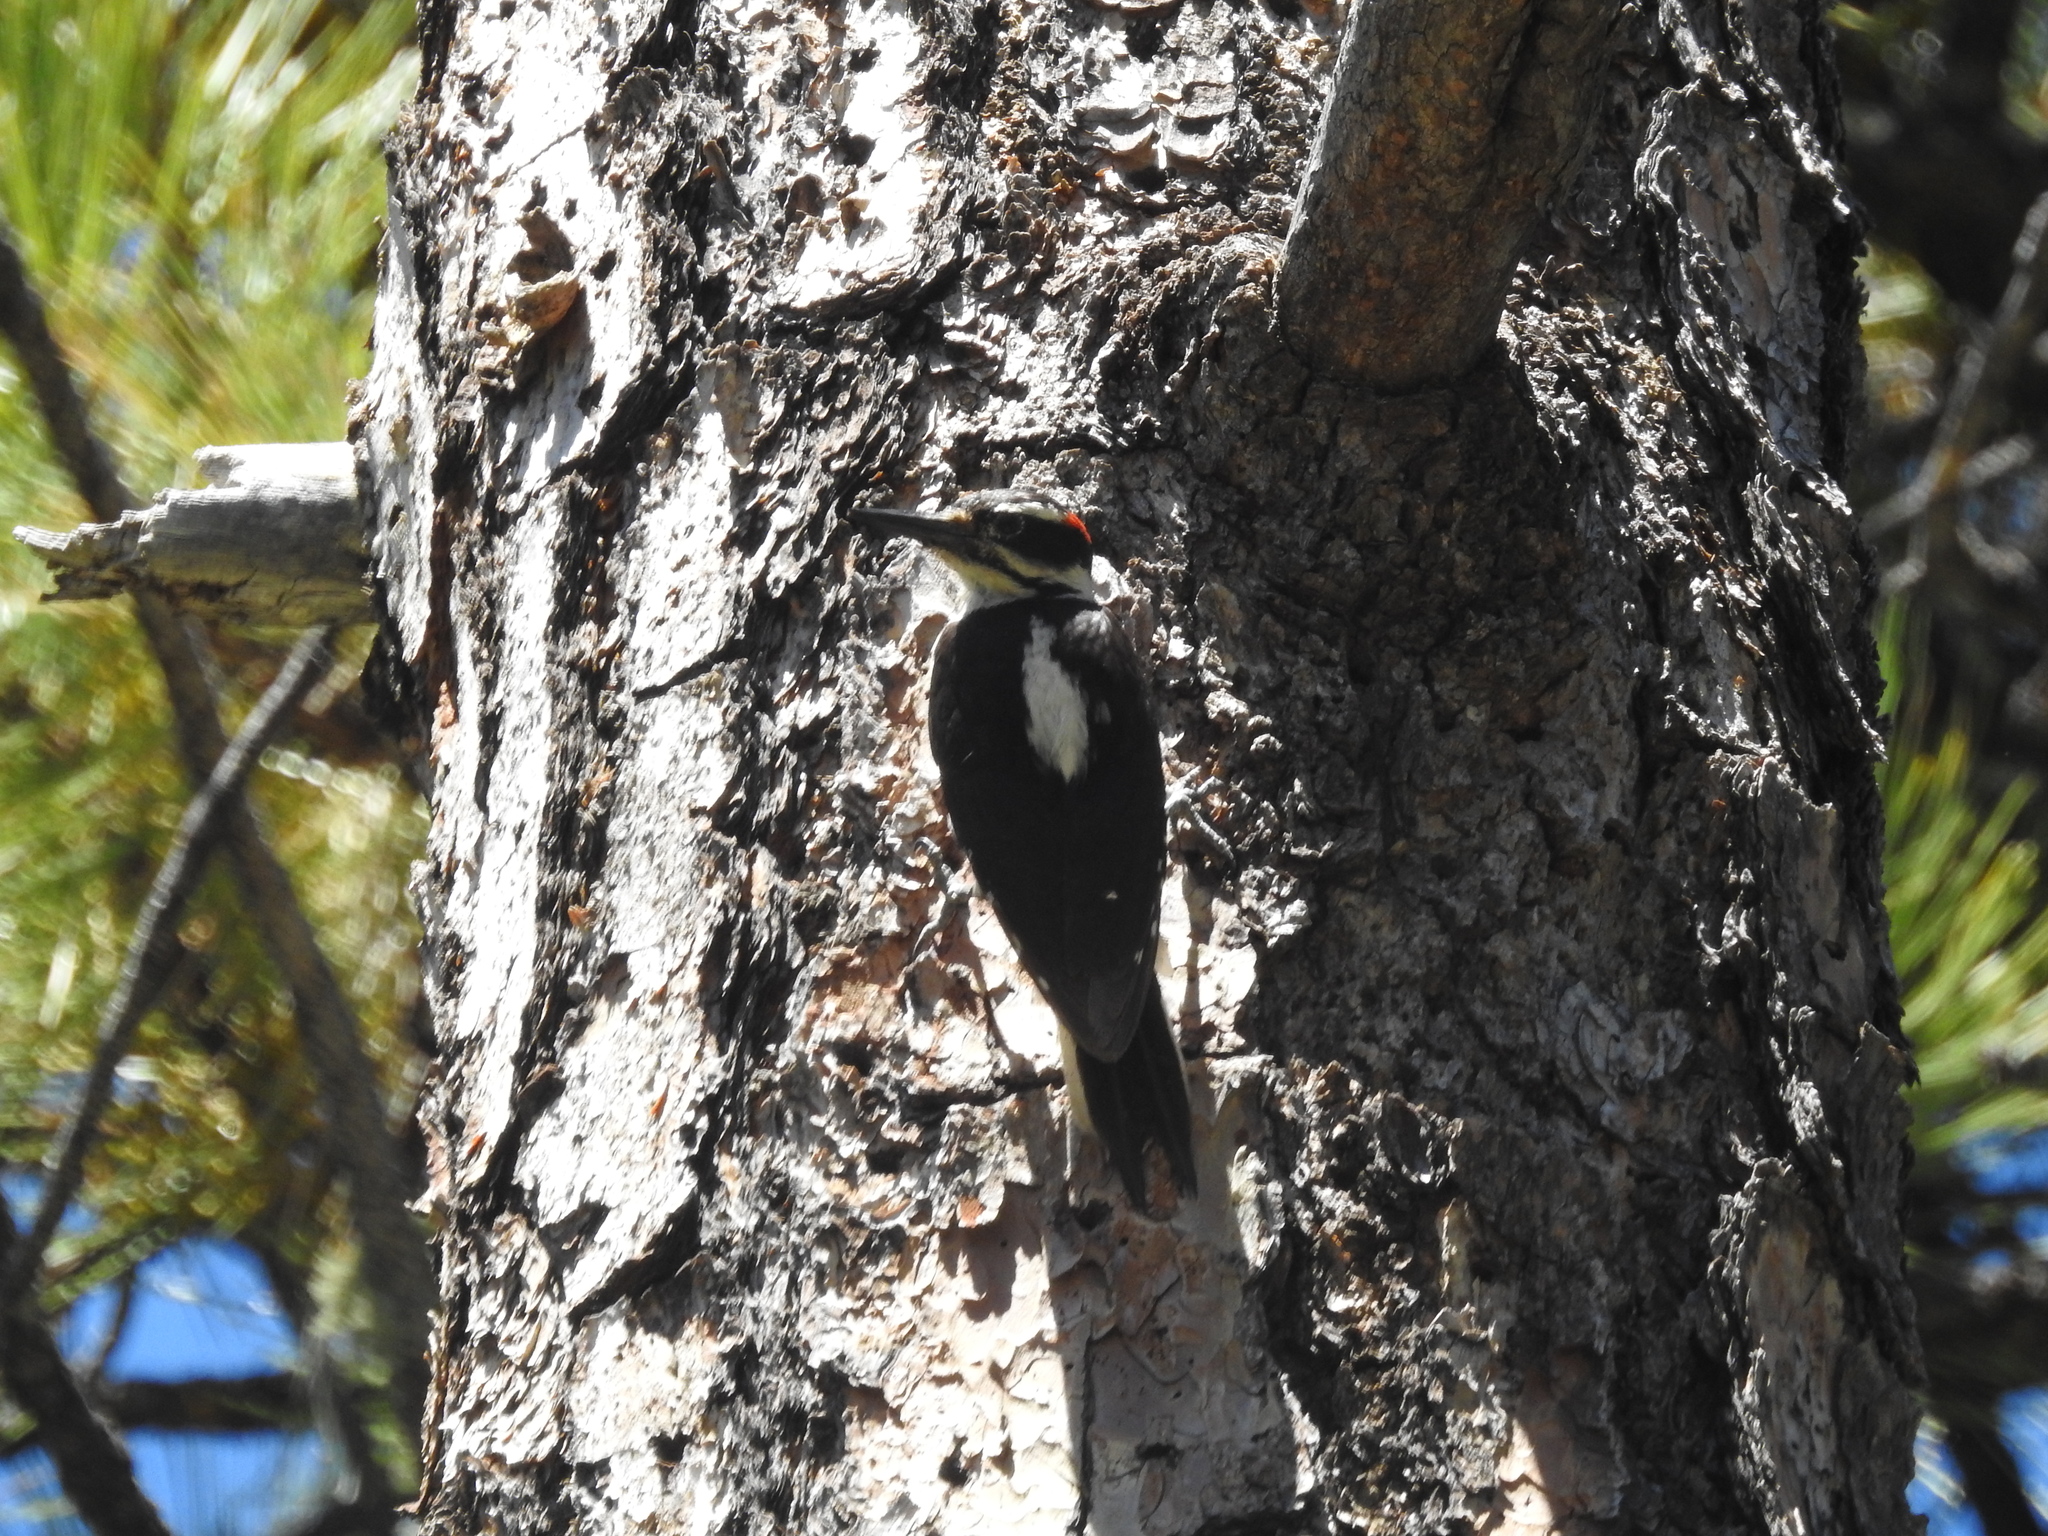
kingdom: Animalia
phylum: Chordata
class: Aves
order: Piciformes
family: Picidae
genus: Leuconotopicus
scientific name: Leuconotopicus villosus
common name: Hairy woodpecker
